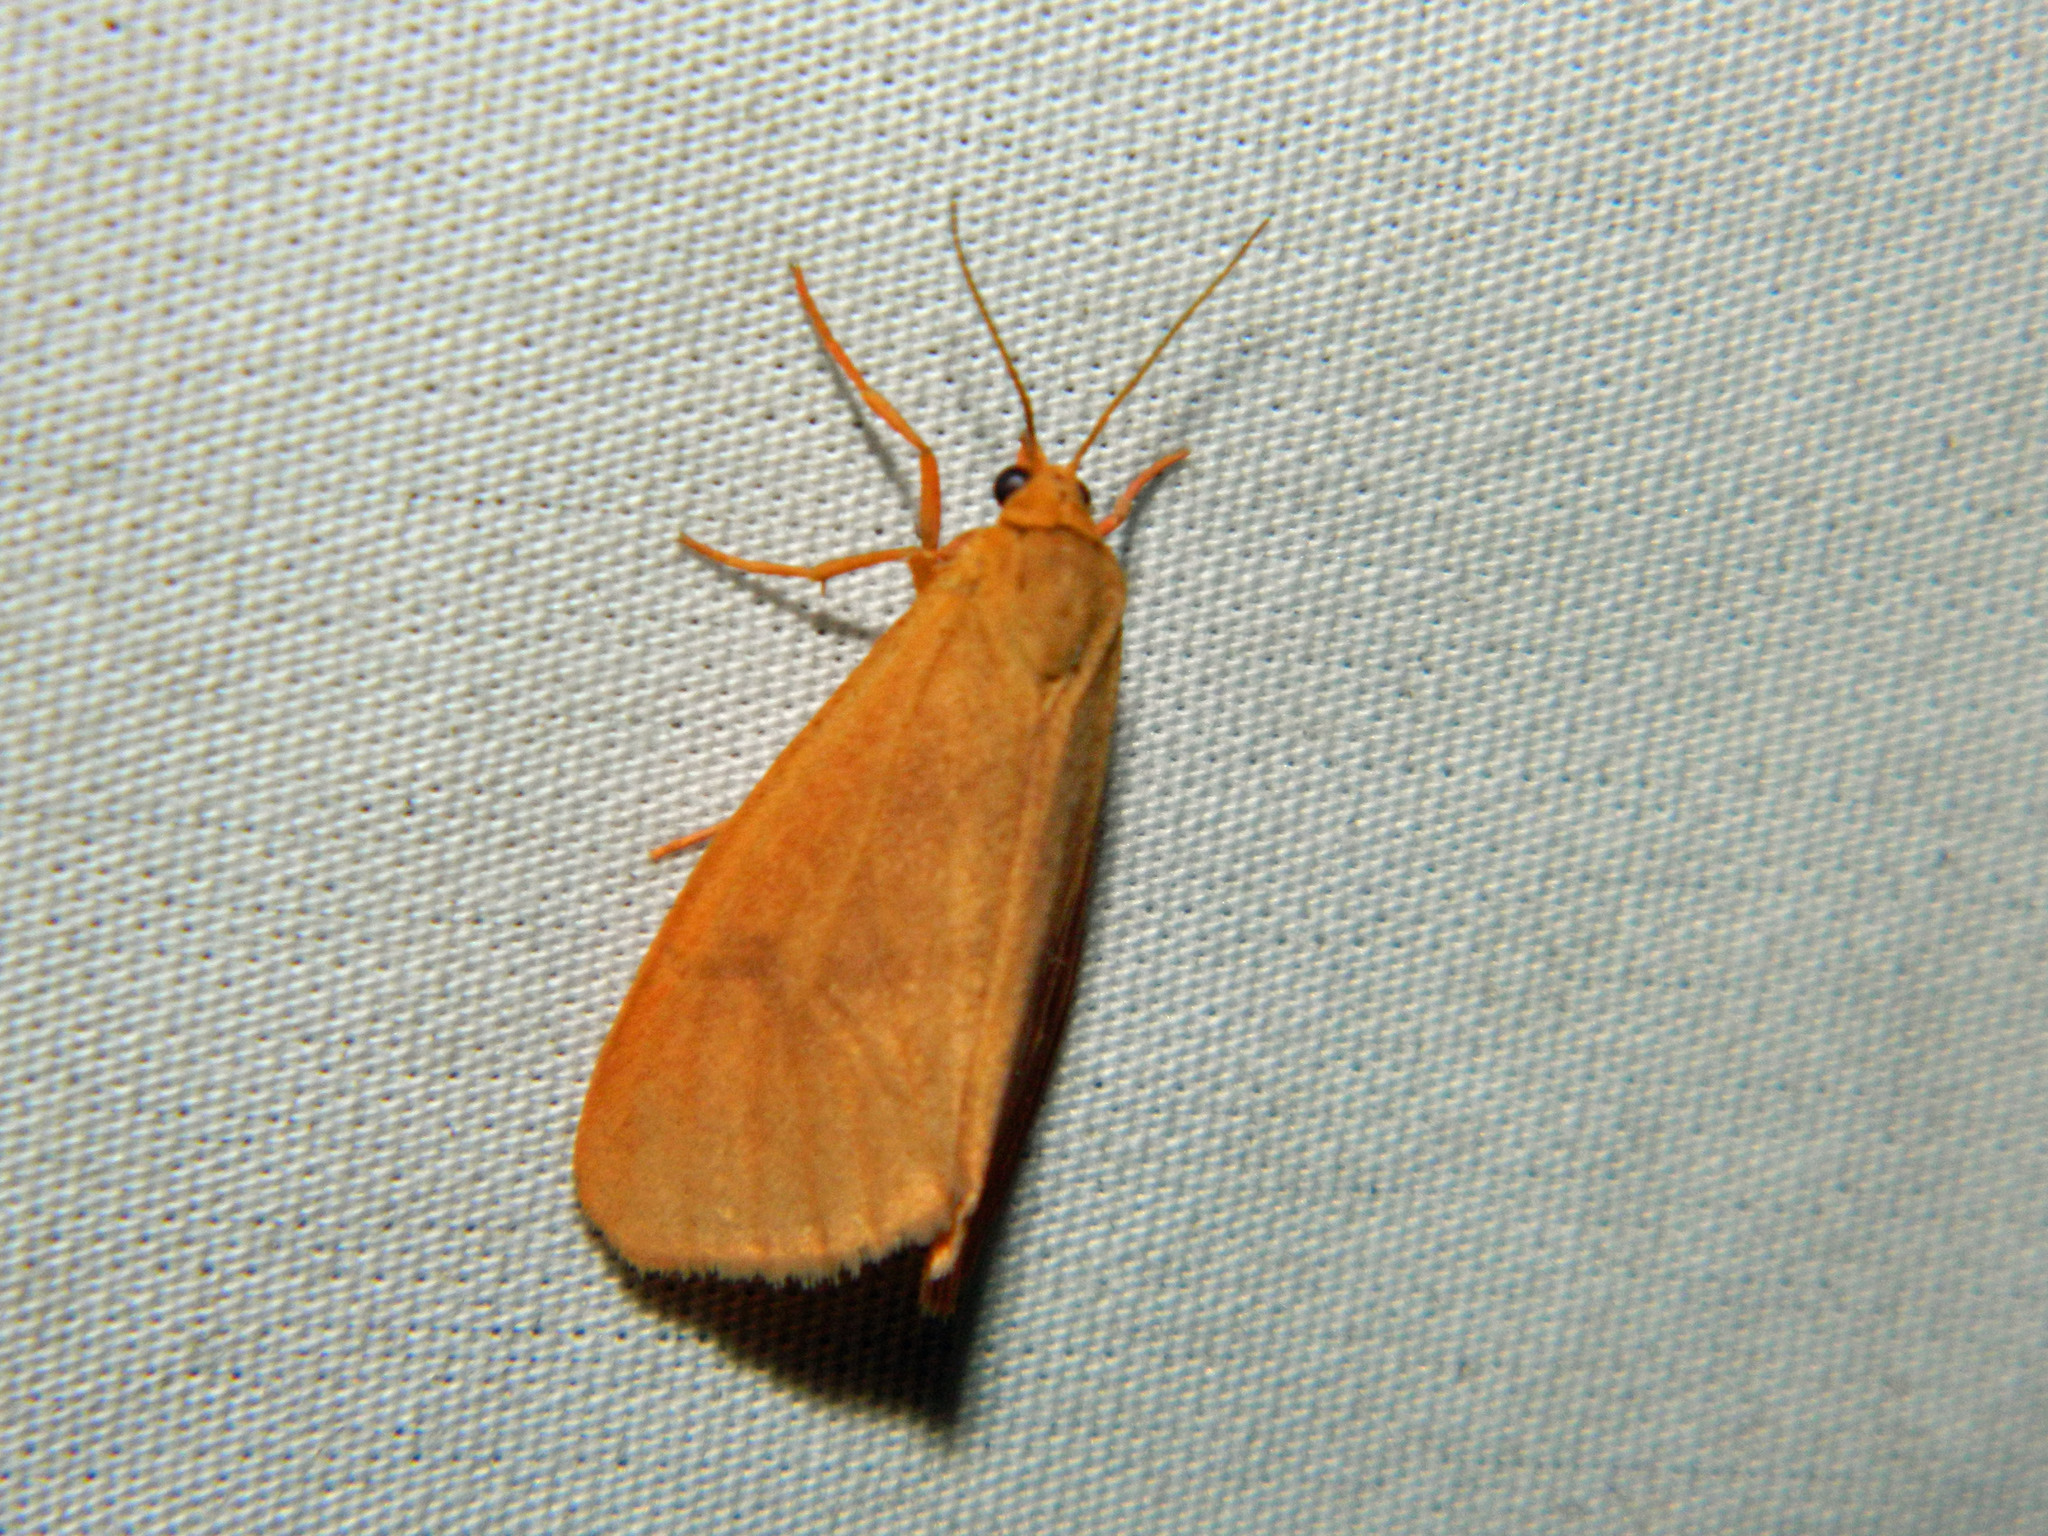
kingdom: Animalia
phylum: Arthropoda
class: Insecta
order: Lepidoptera
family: Erebidae
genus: Virbia
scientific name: Virbia ferruginosa
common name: Rusty virbia moth
